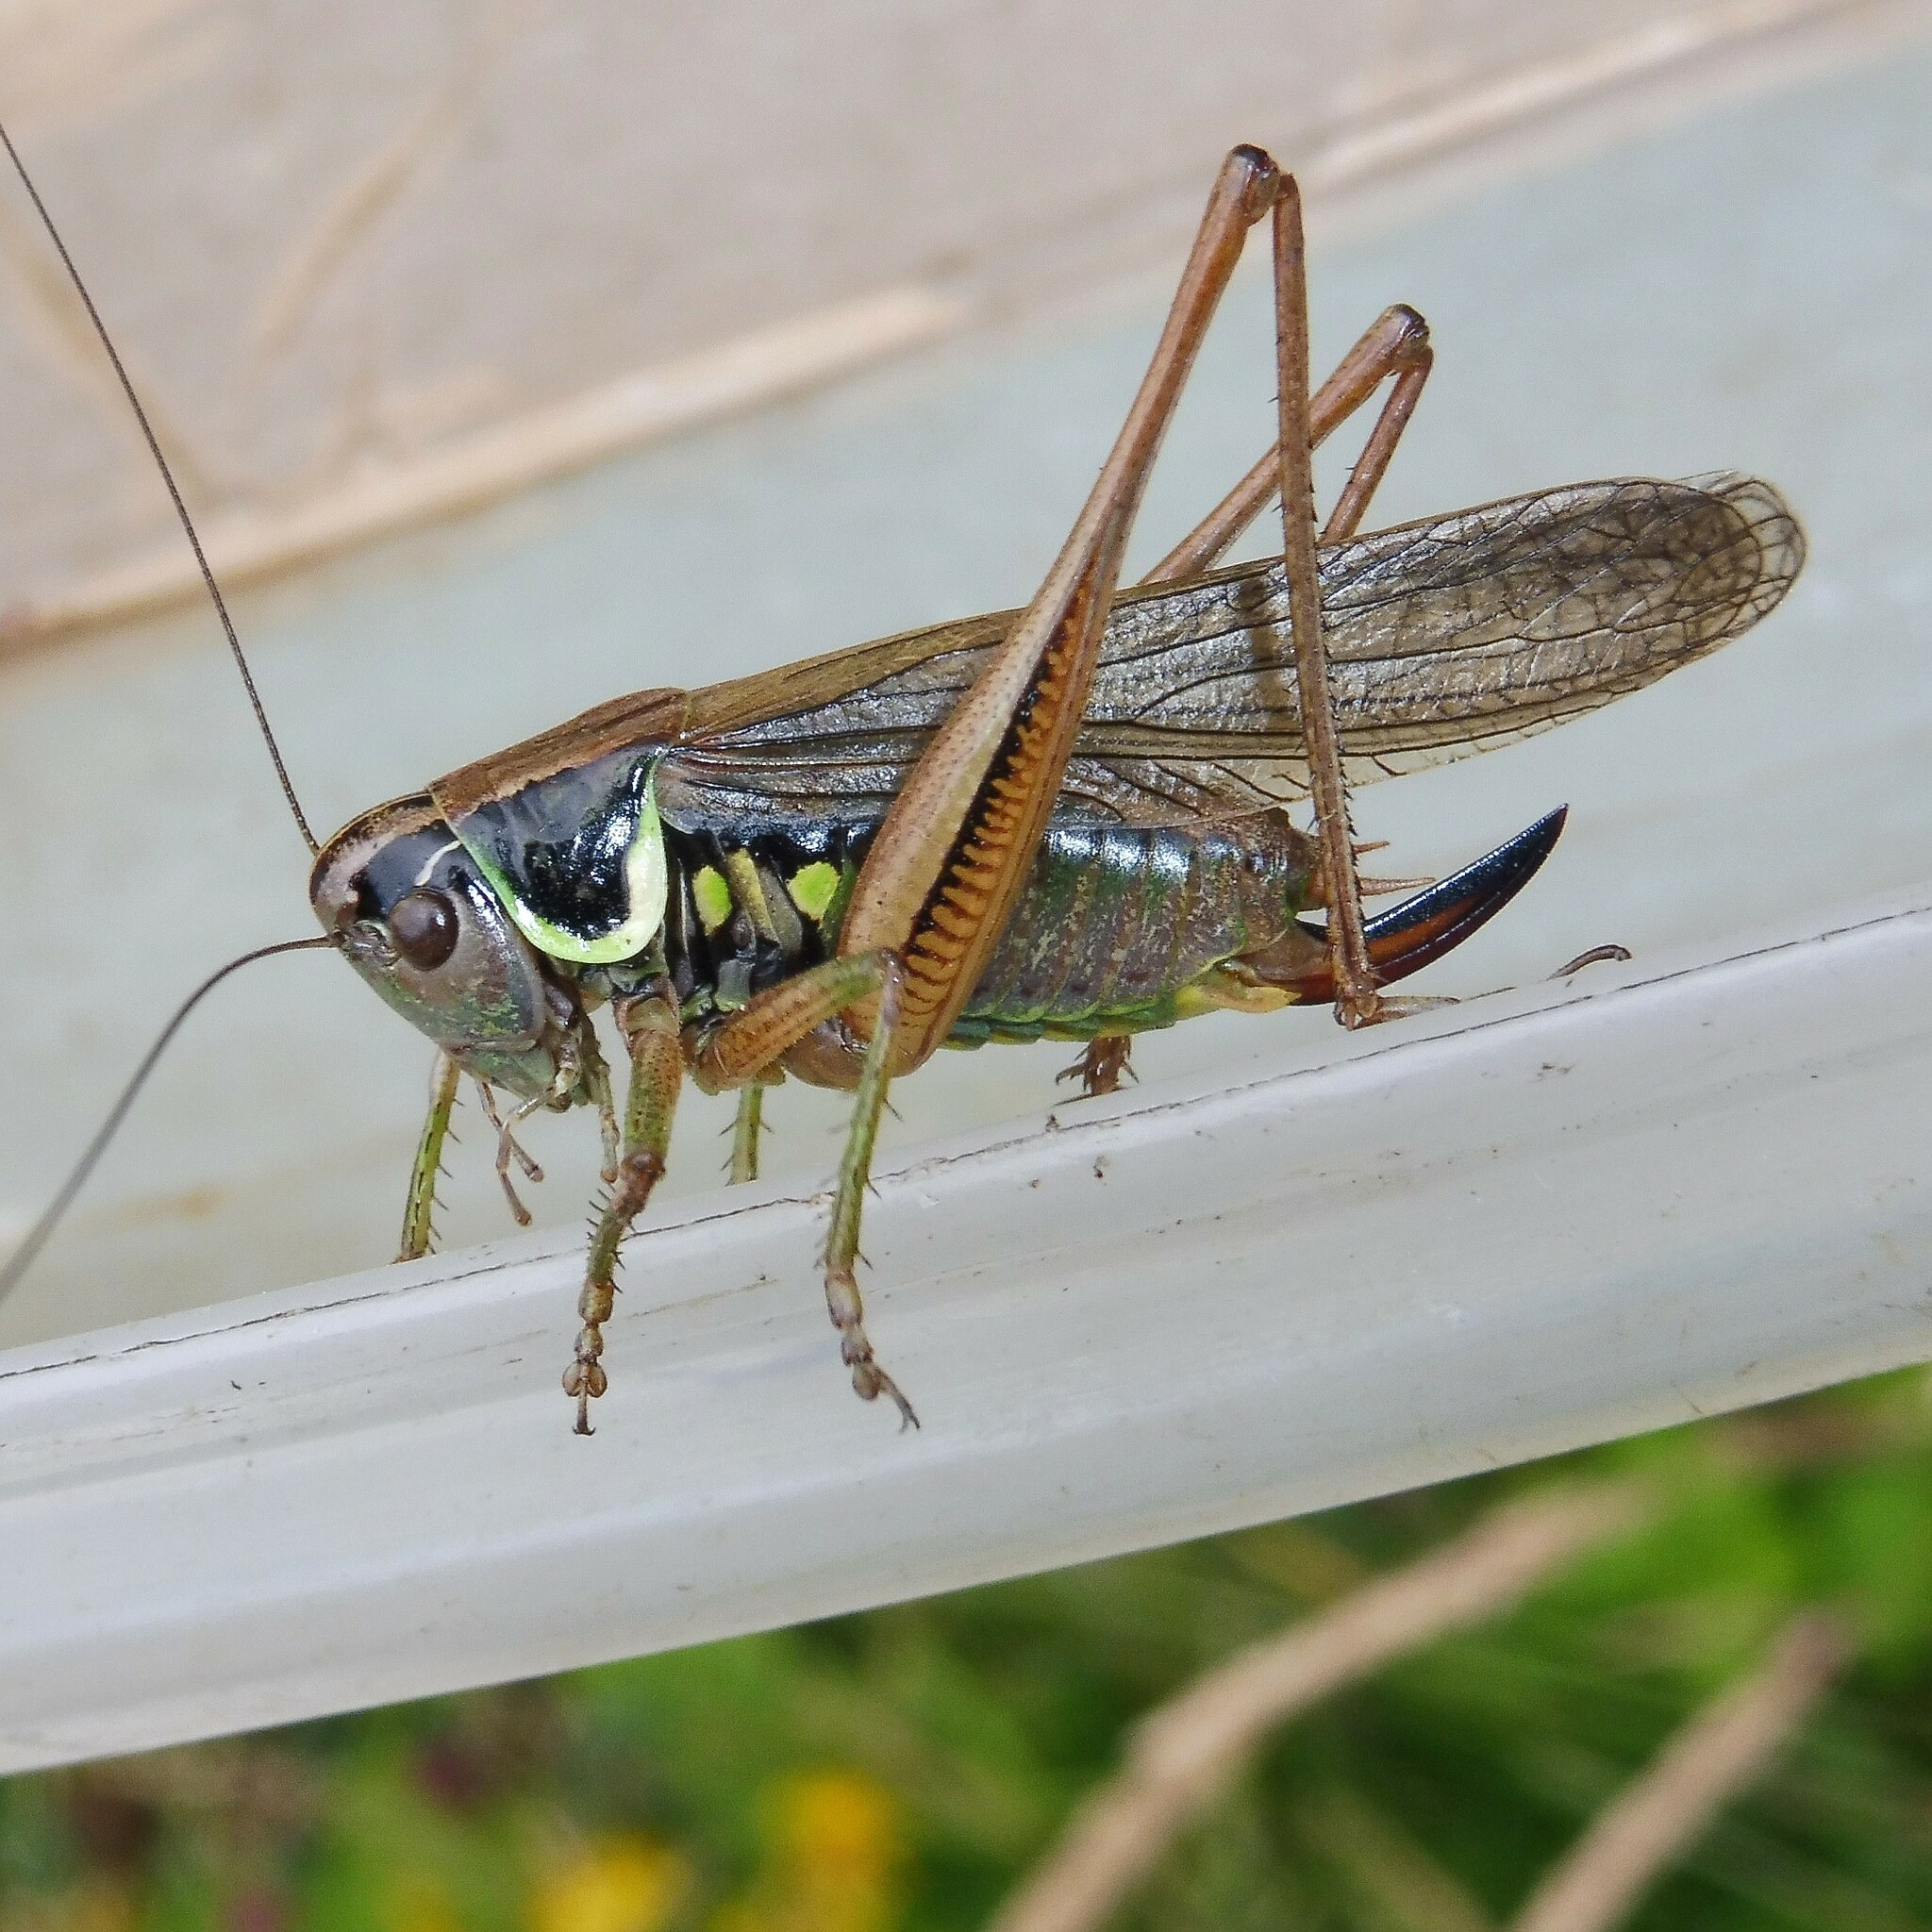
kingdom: Animalia
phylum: Arthropoda
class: Insecta
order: Orthoptera
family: Tettigoniidae
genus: Roeseliana
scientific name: Roeseliana roeselii
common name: Roesel's bush cricket
